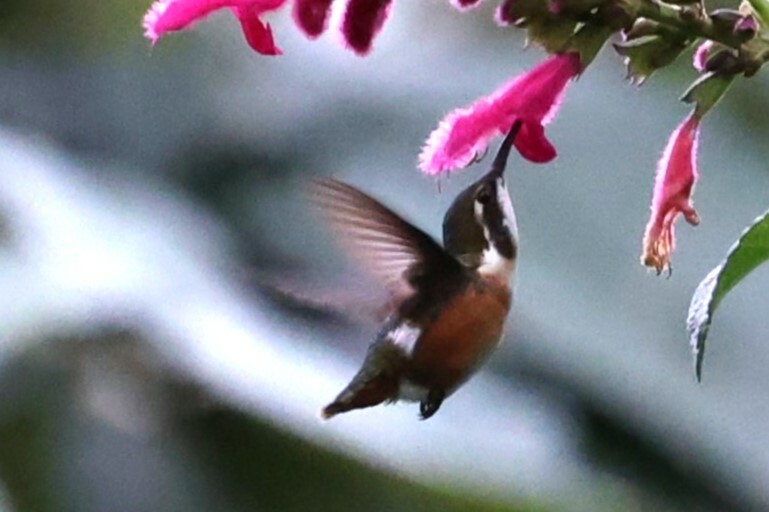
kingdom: Animalia
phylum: Chordata
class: Aves
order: Apodiformes
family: Trochilidae
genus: Chaetocercus
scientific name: Chaetocercus mulsant
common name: White-bellied woodstar
